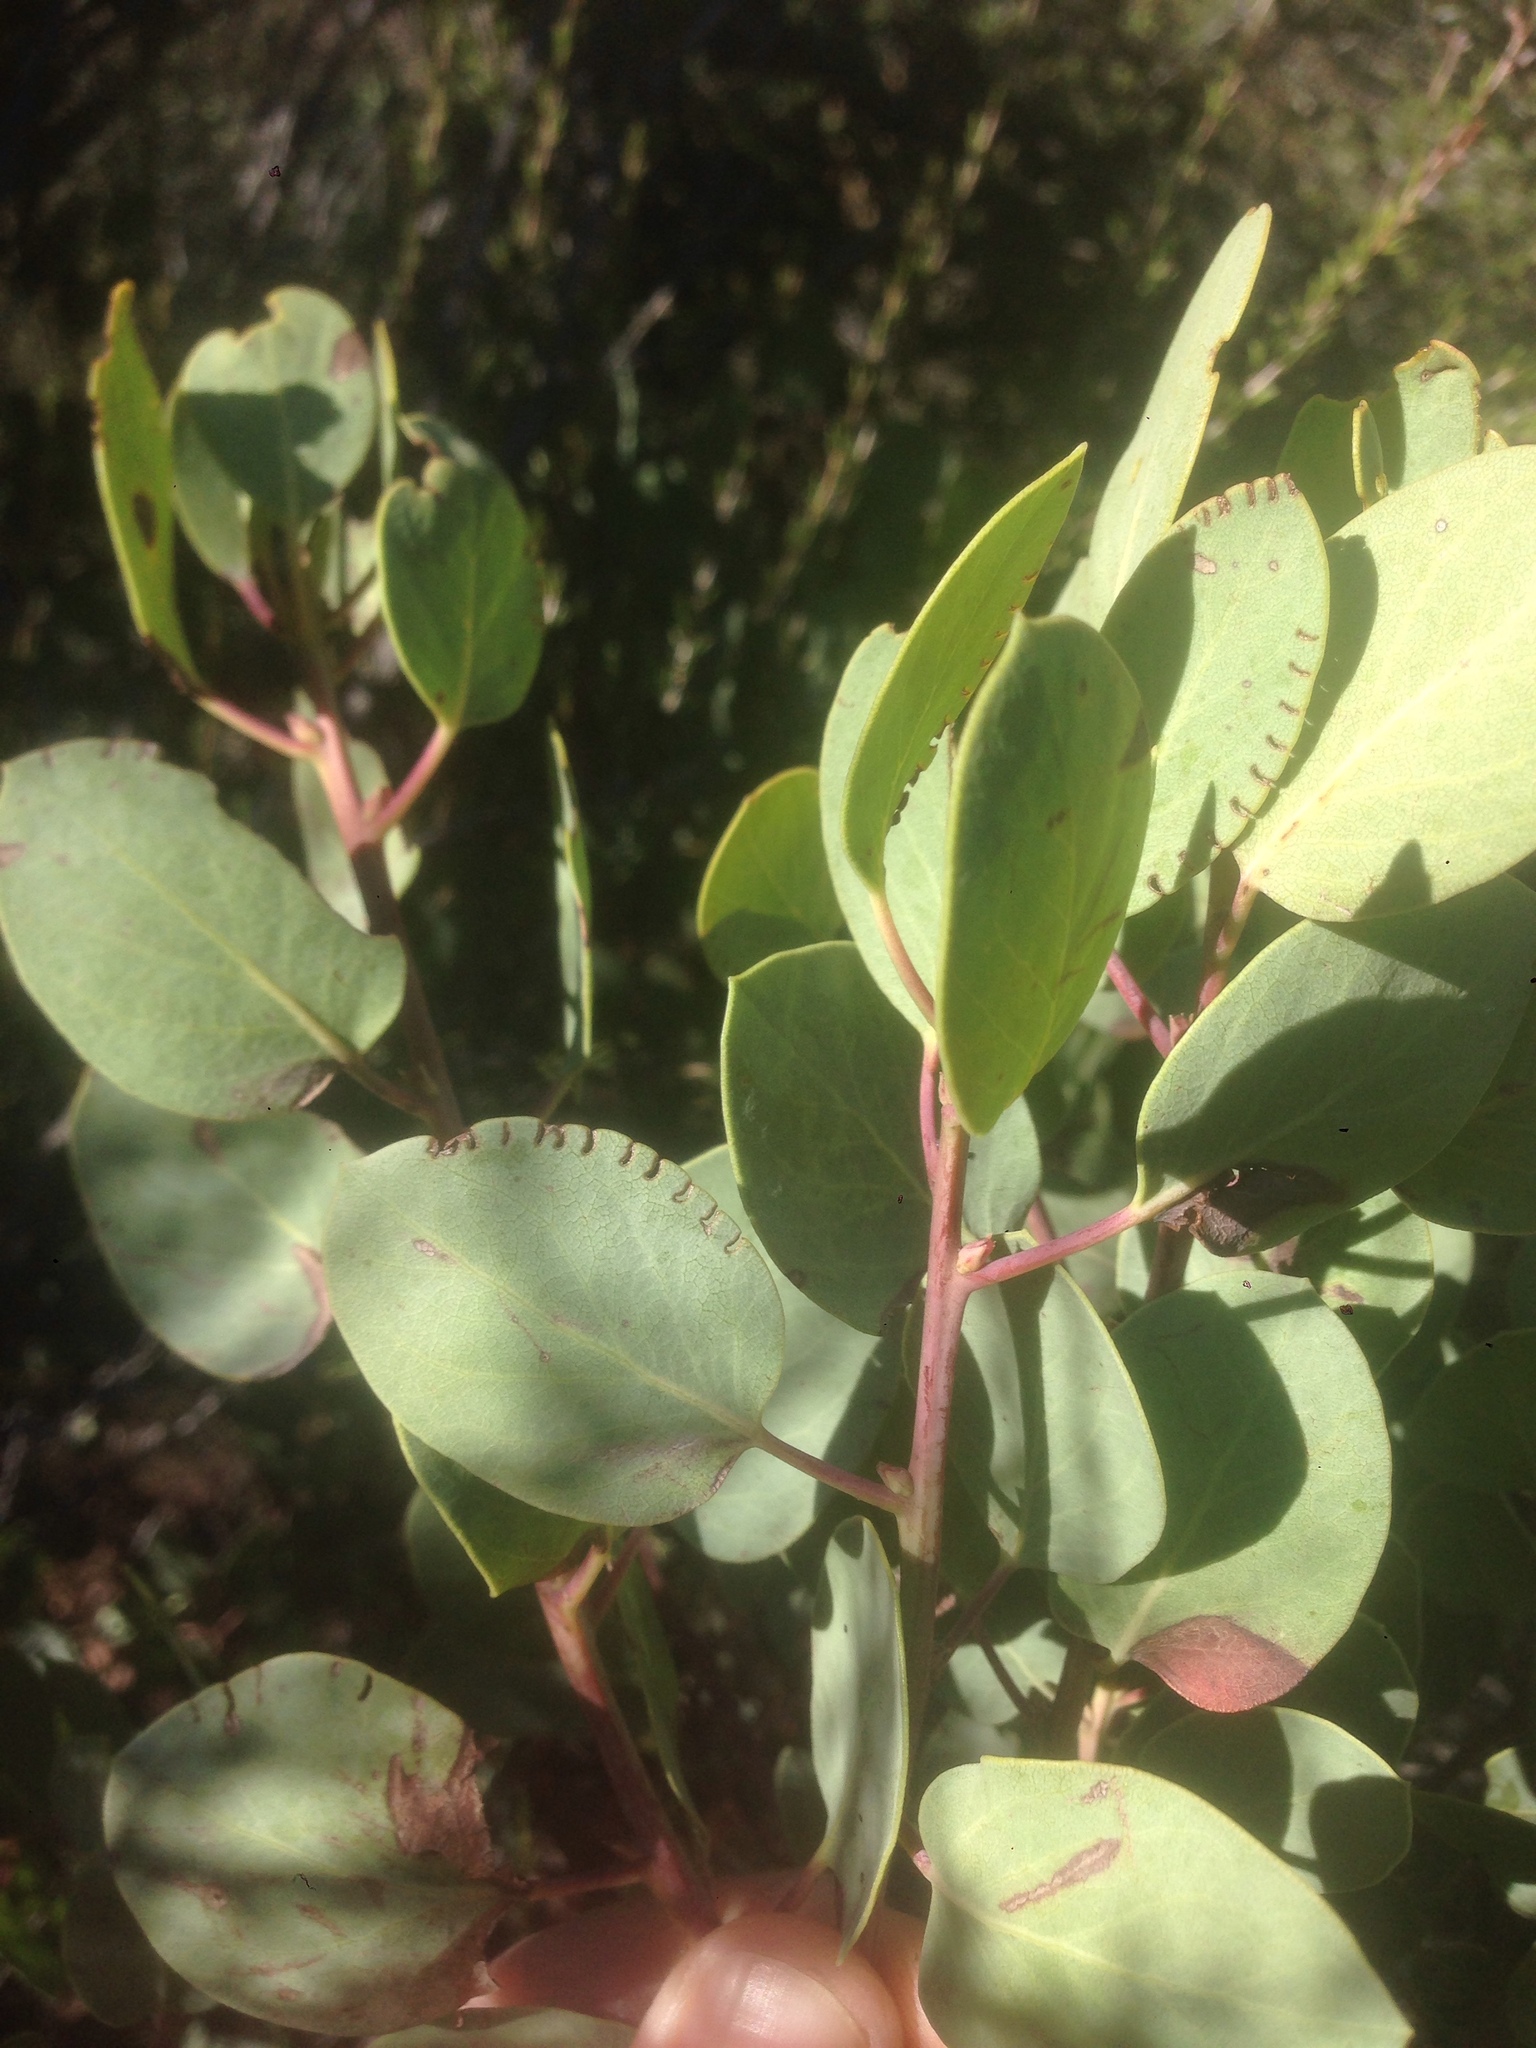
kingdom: Plantae
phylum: Tracheophyta
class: Magnoliopsida
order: Ericales
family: Ericaceae
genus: Arctostaphylos
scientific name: Arctostaphylos glauca
